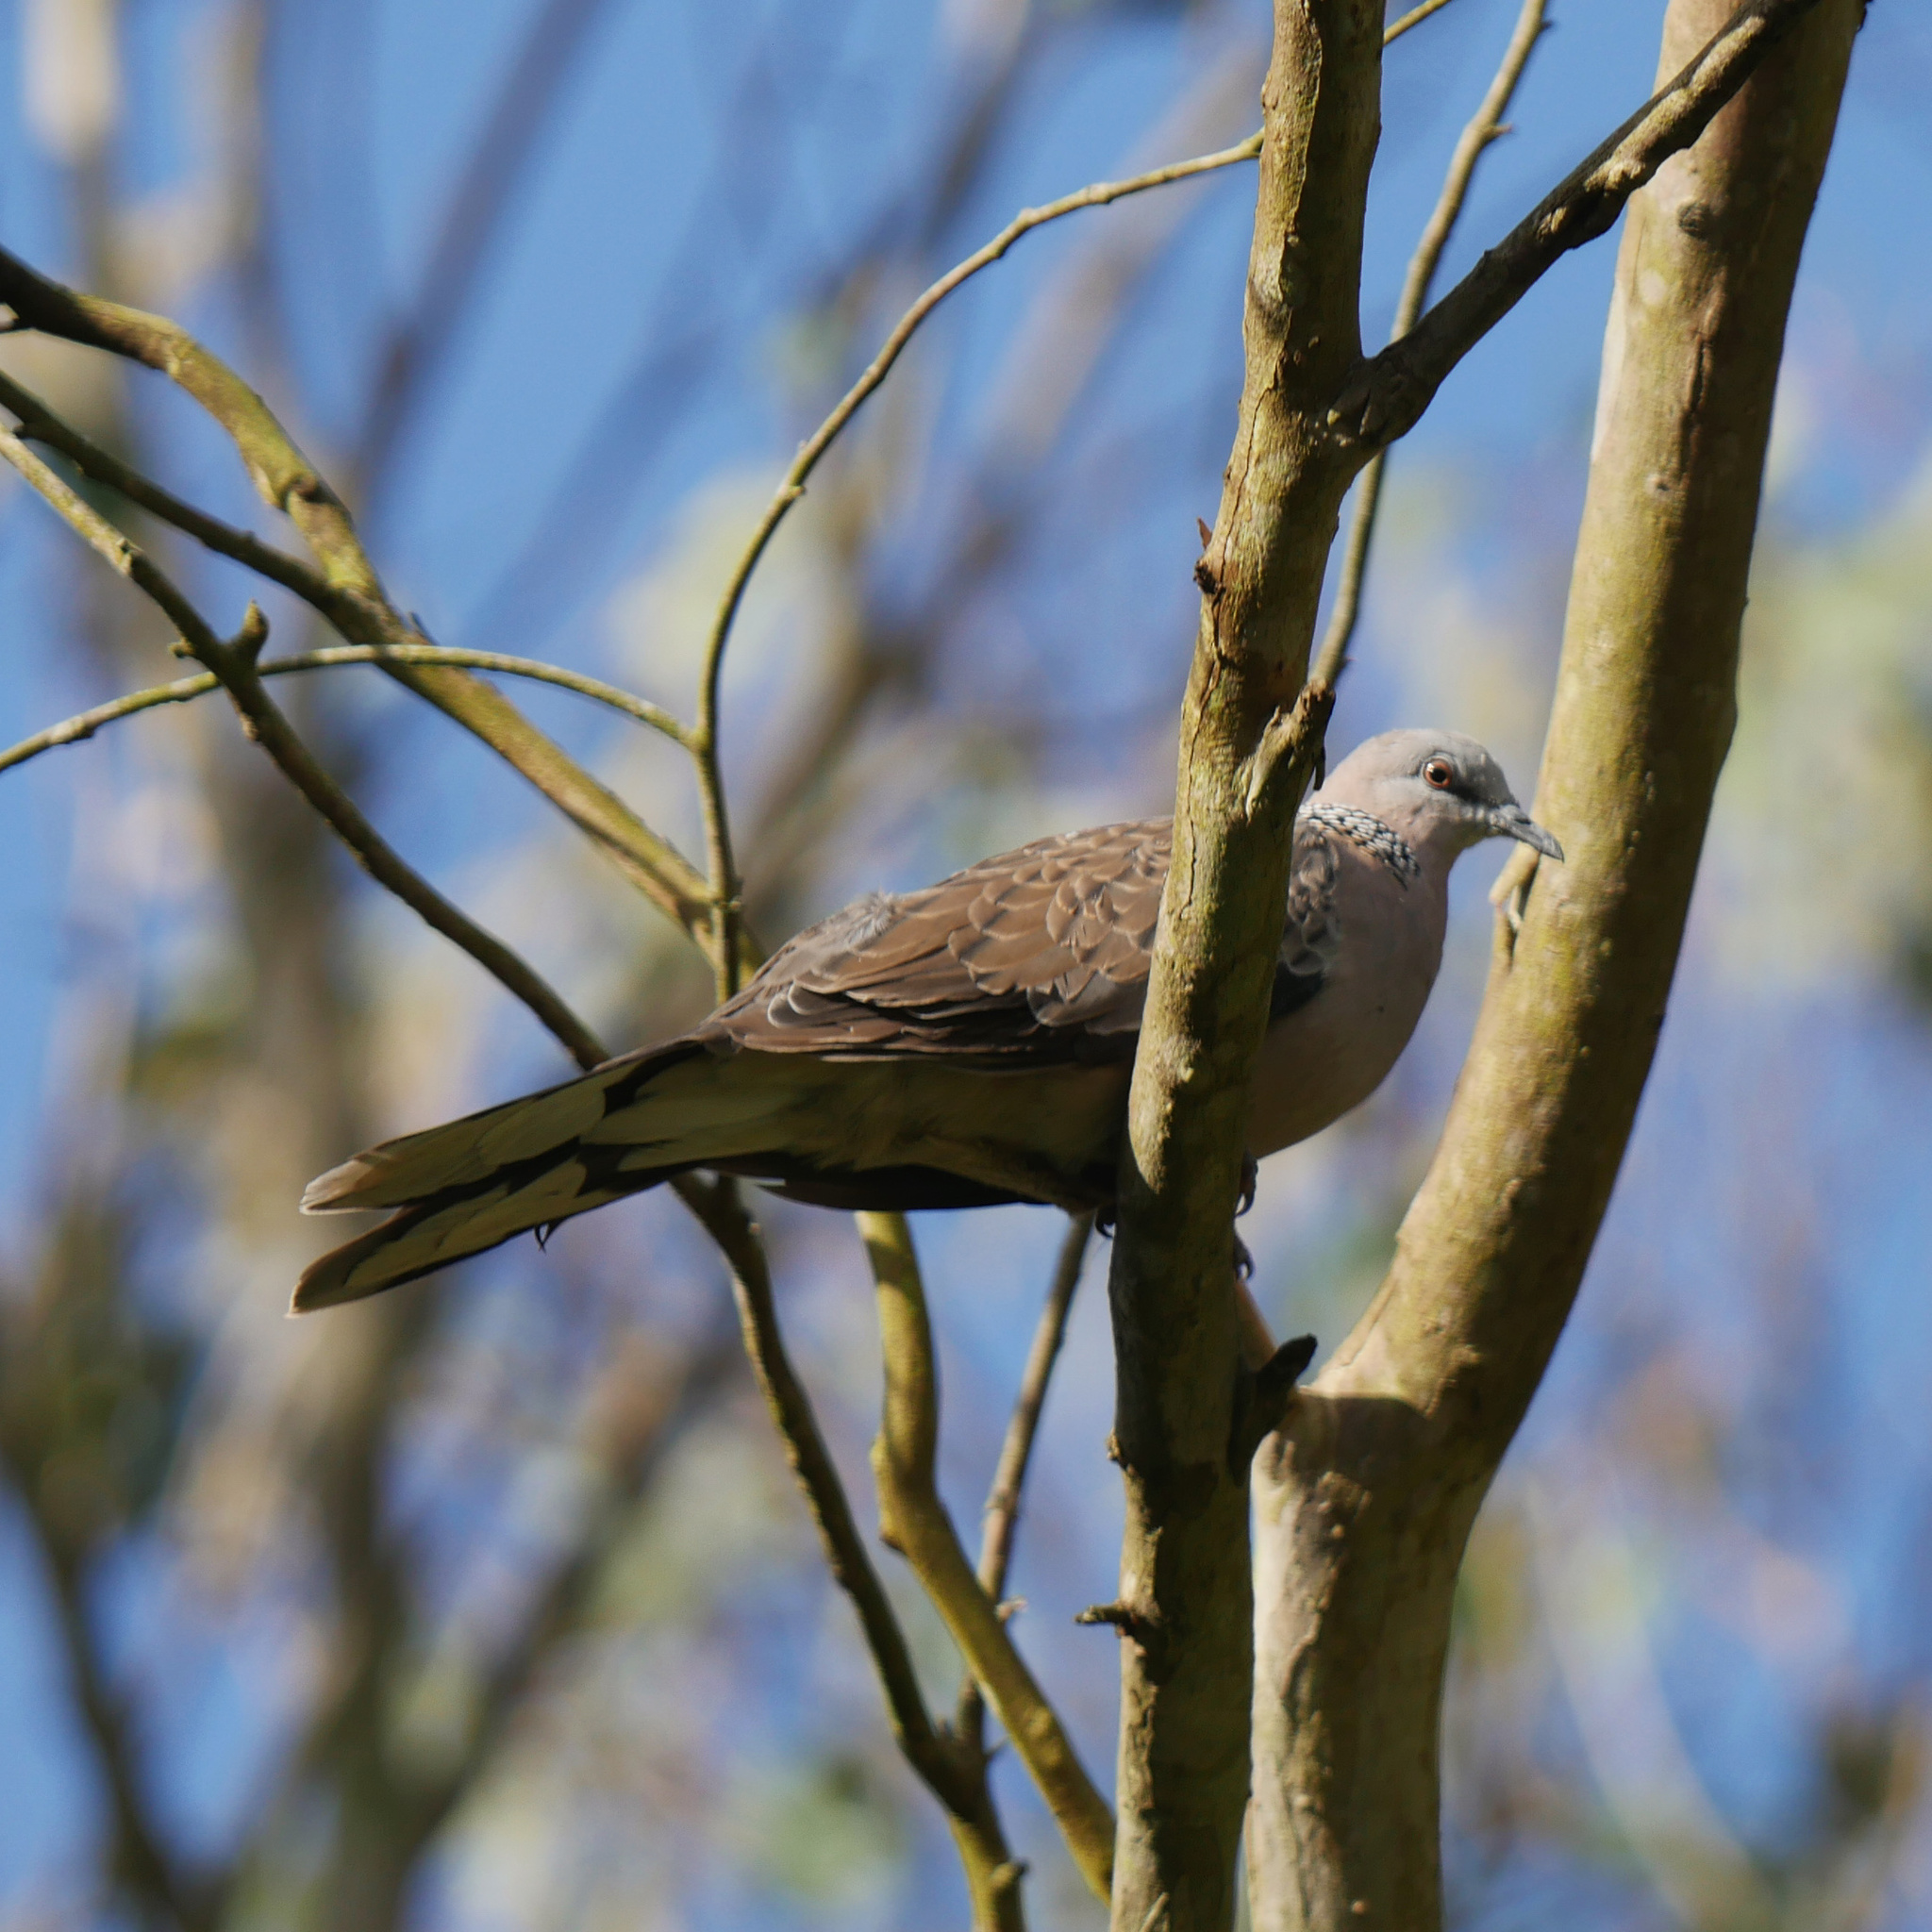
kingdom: Animalia
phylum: Chordata
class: Aves
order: Columbiformes
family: Columbidae
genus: Spilopelia
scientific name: Spilopelia chinensis
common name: Spotted dove
